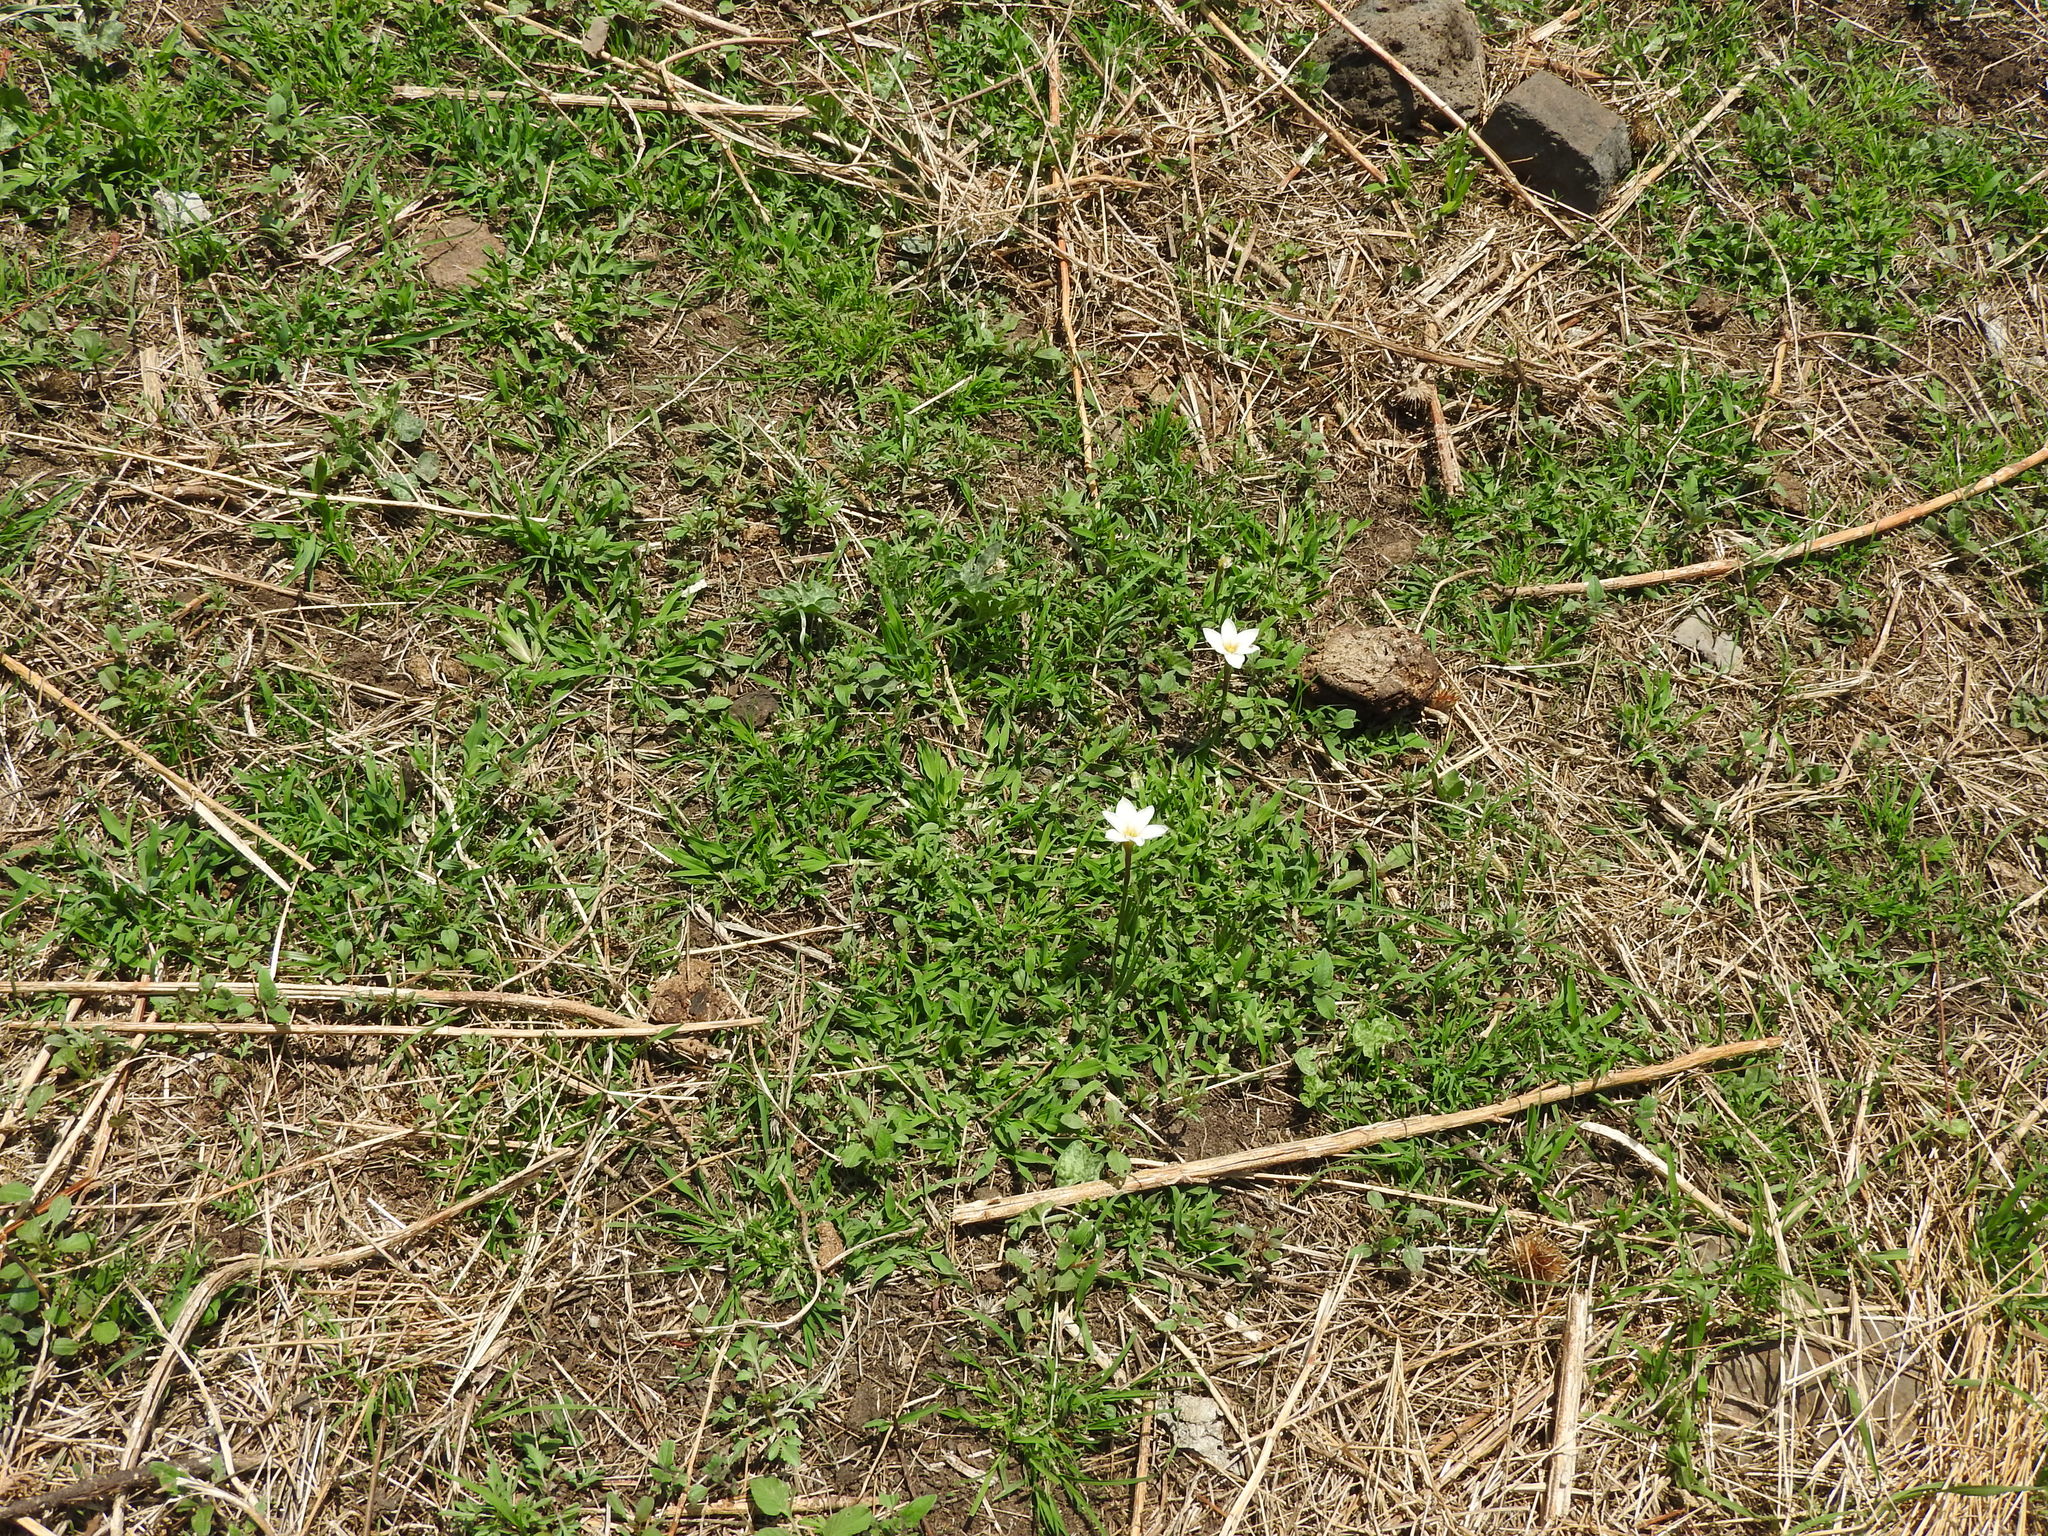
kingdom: Plantae
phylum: Tracheophyta
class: Liliopsida
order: Asparagales
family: Amaryllidaceae
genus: Zephyranthes
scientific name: Zephyranthes candida
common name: Autumn zephyrlily
